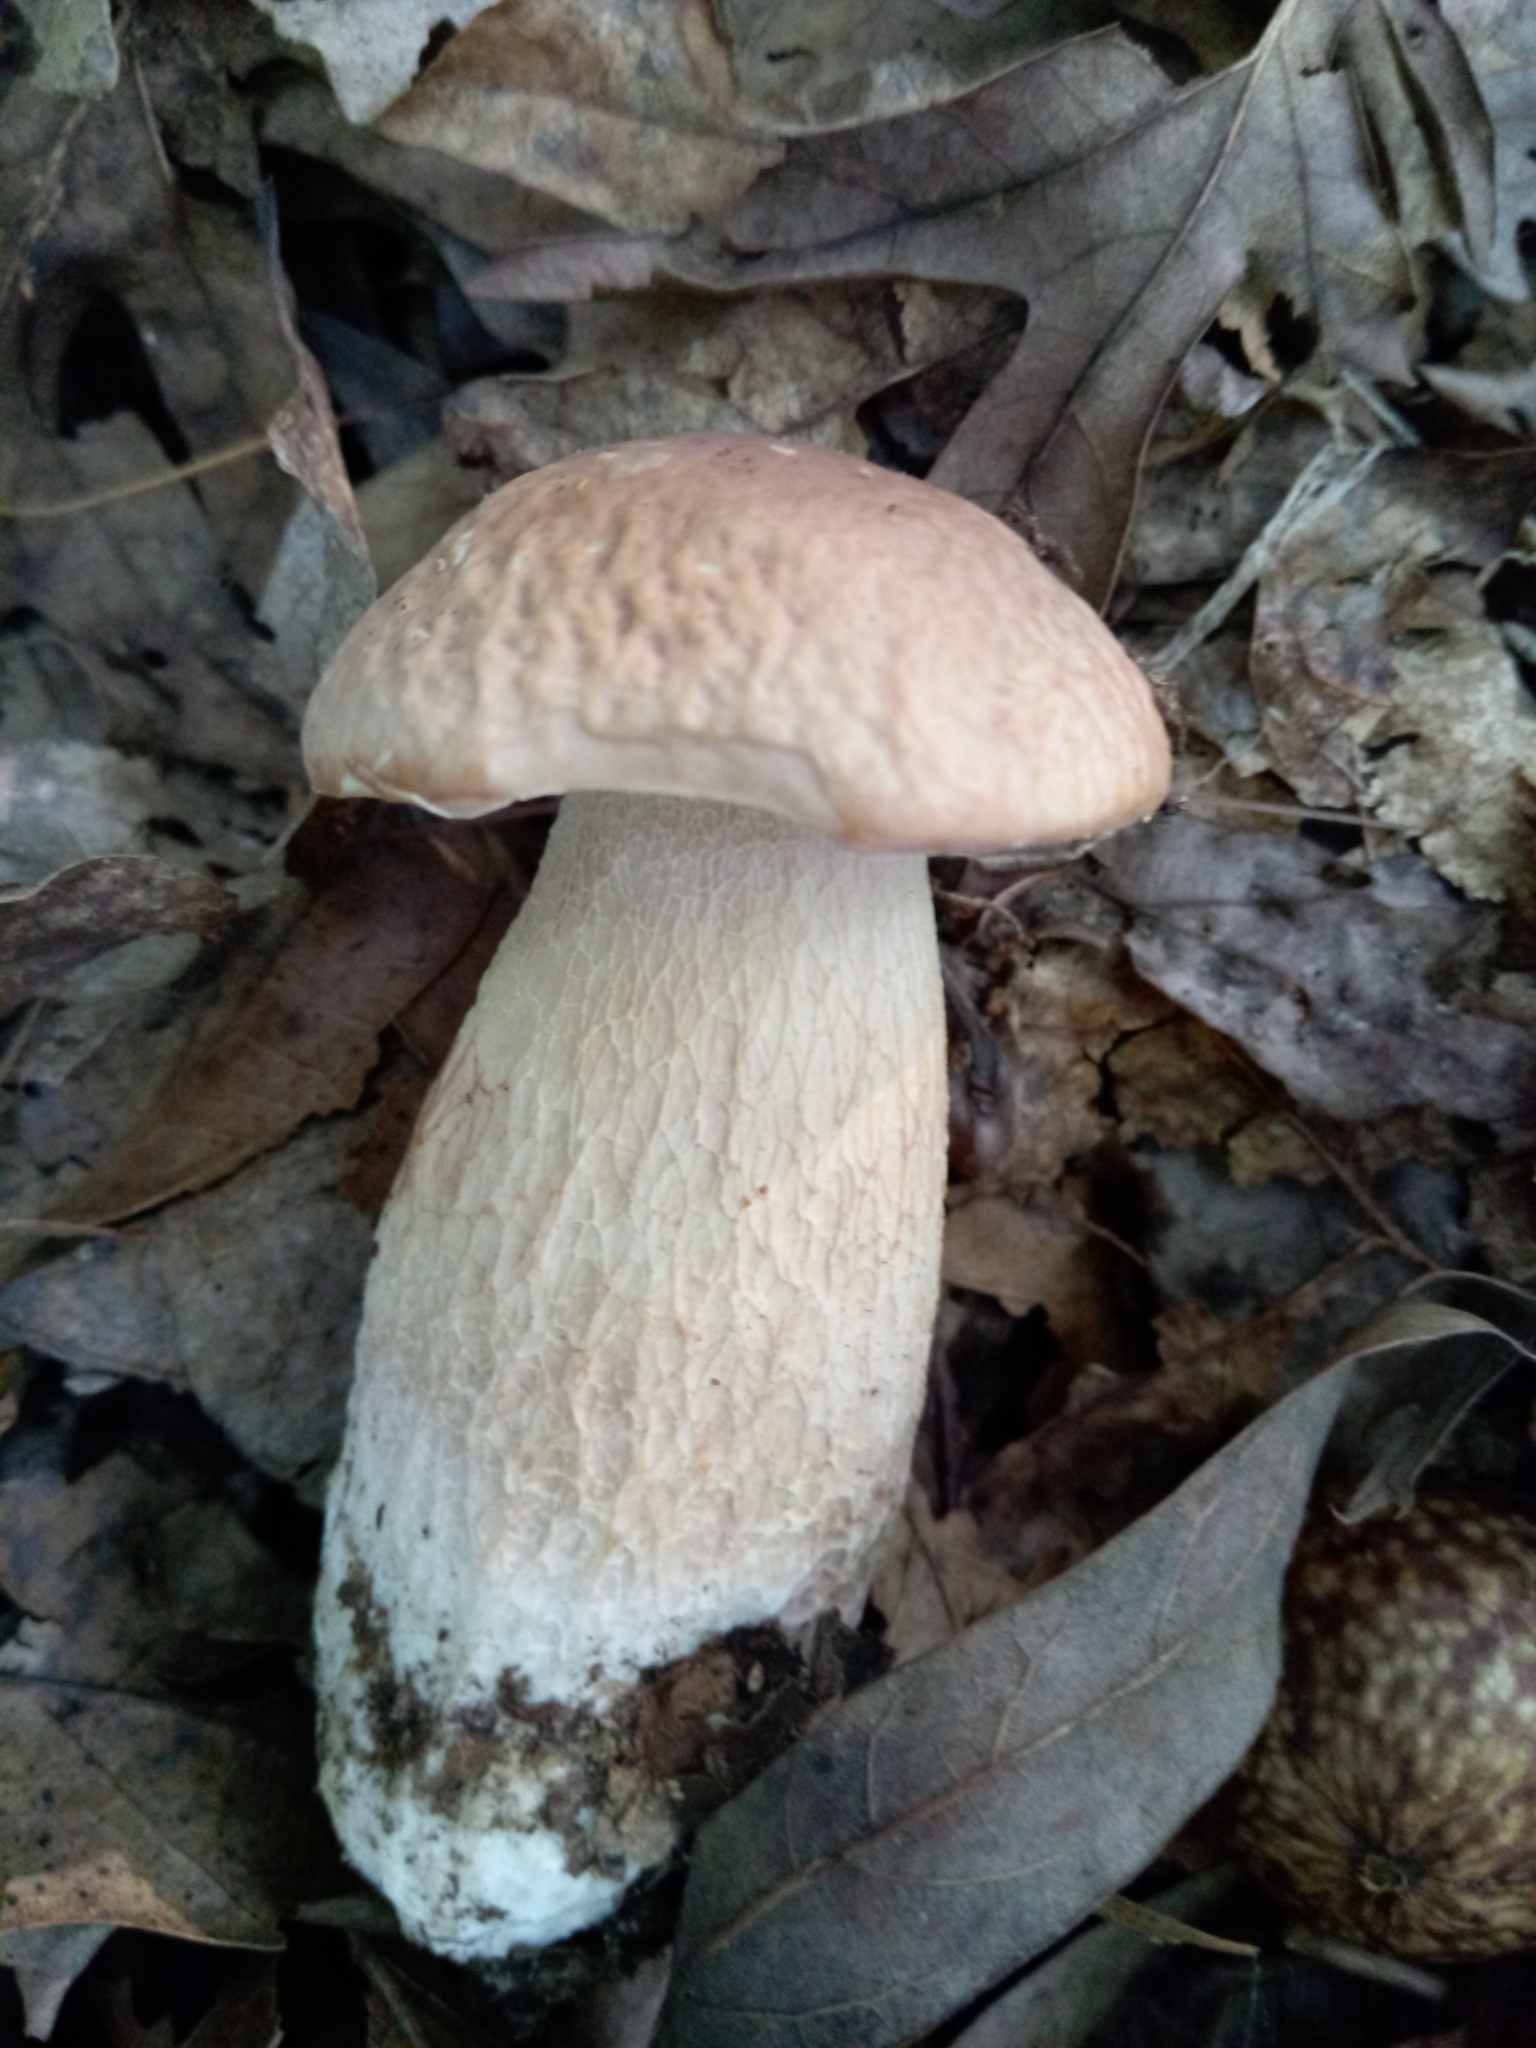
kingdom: Fungi
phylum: Basidiomycota
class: Agaricomycetes
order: Boletales
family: Boletaceae
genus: Xanthoconium
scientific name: Xanthoconium separans
